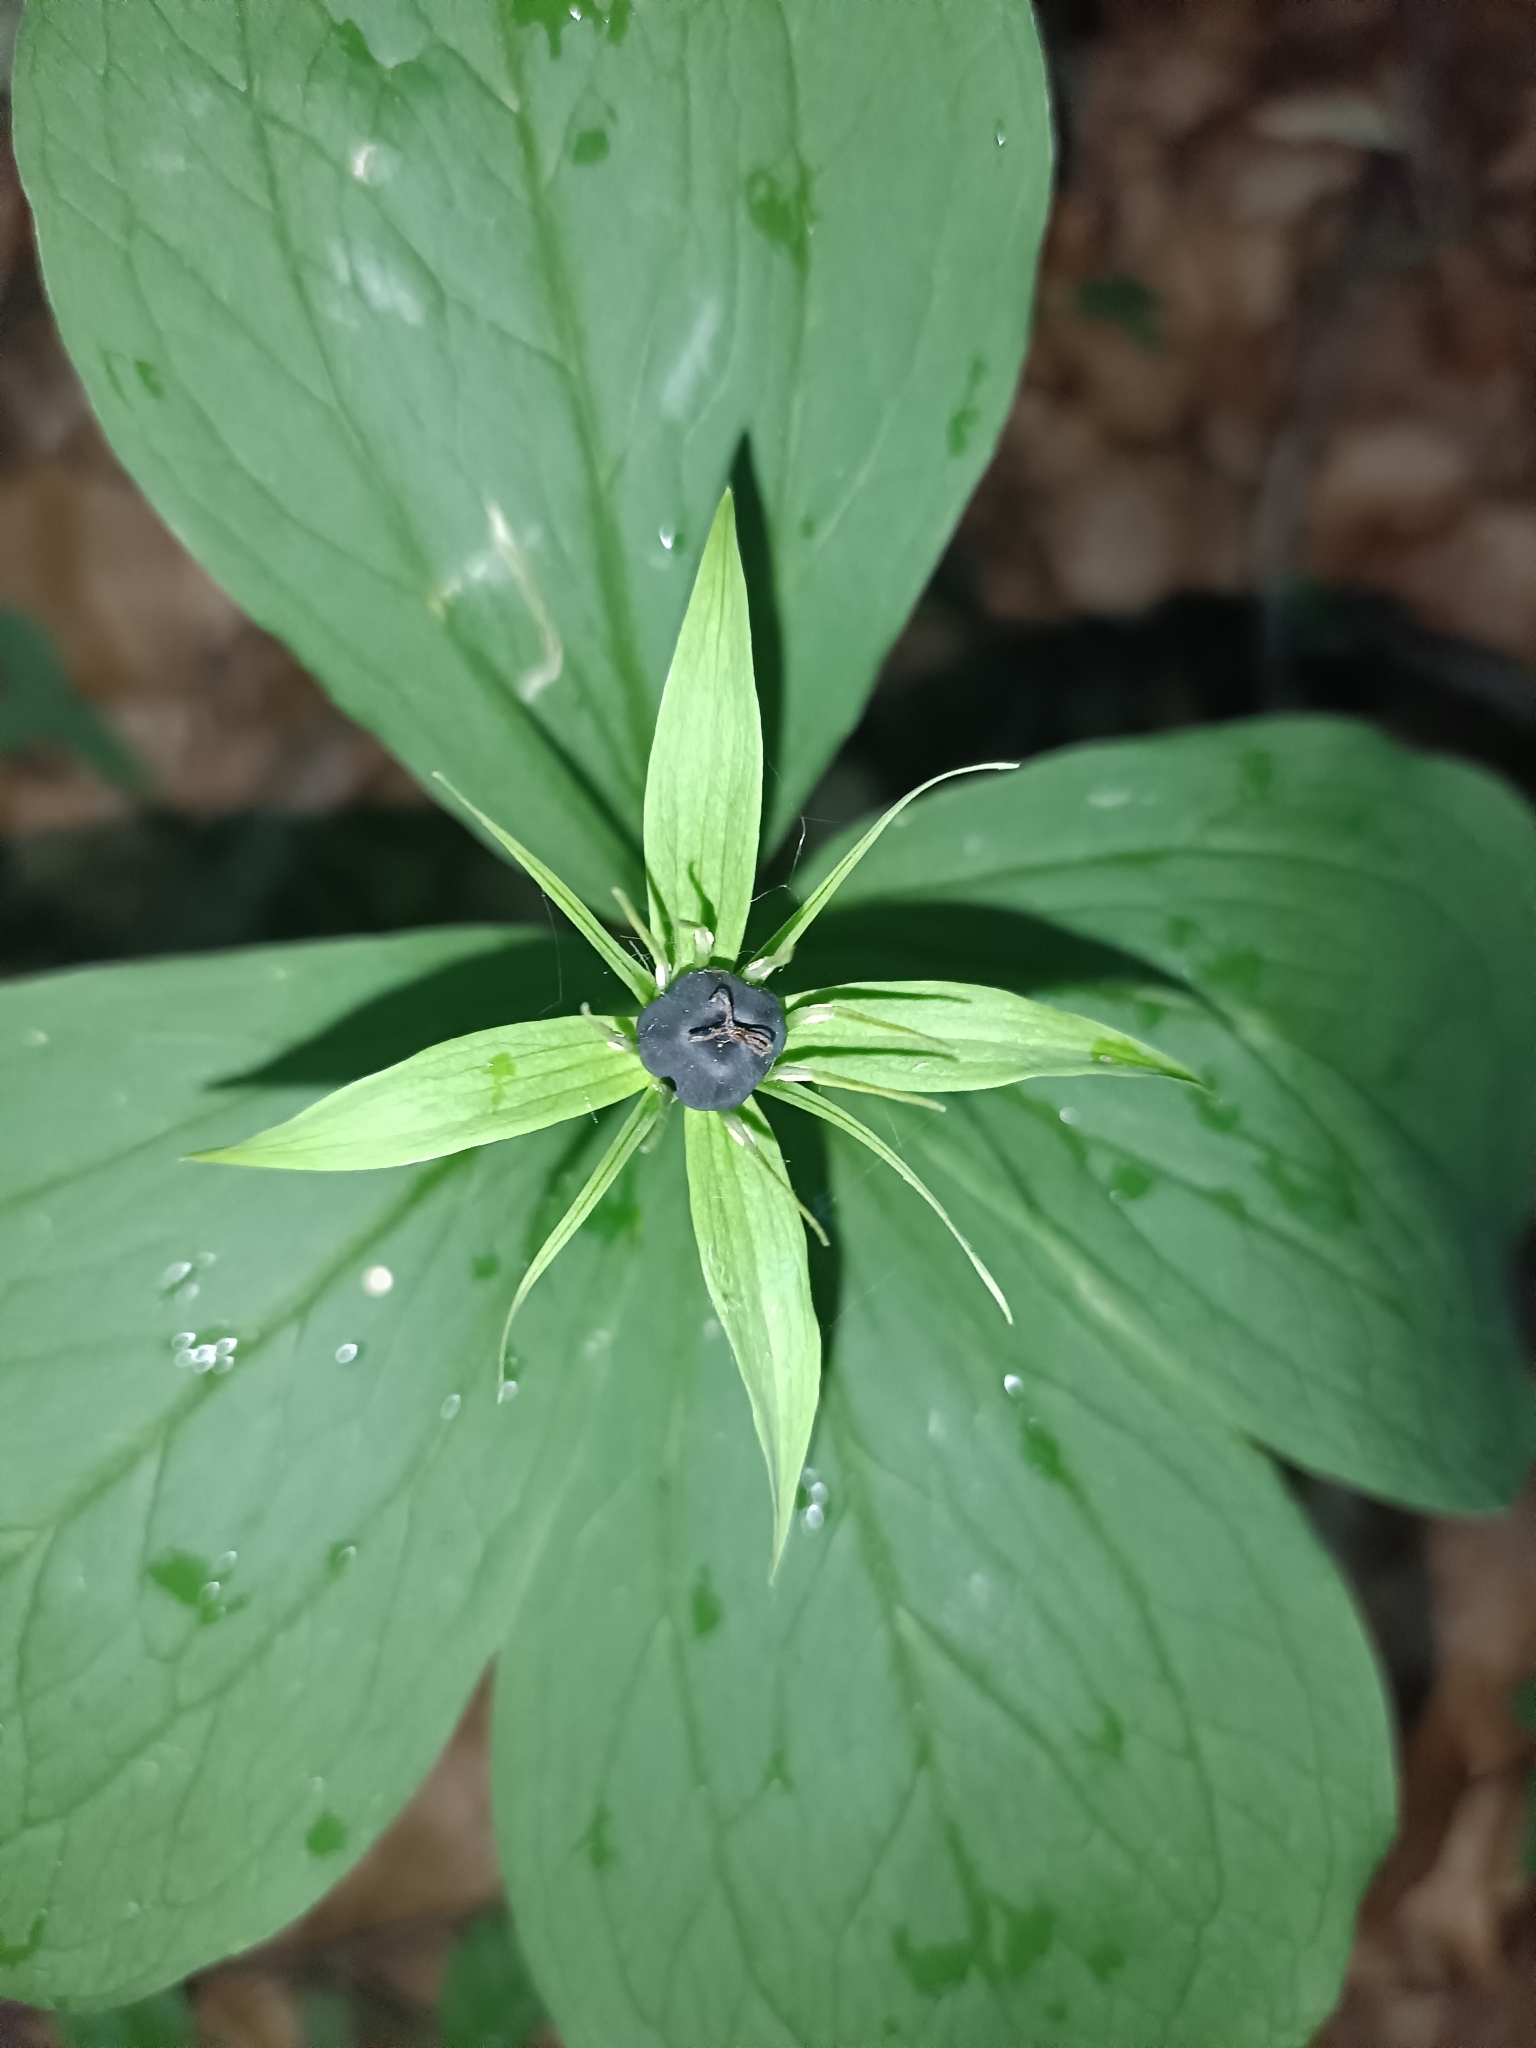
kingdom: Plantae
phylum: Tracheophyta
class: Liliopsida
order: Liliales
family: Melanthiaceae
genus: Paris
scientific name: Paris quadrifolia
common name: Herb-paris
